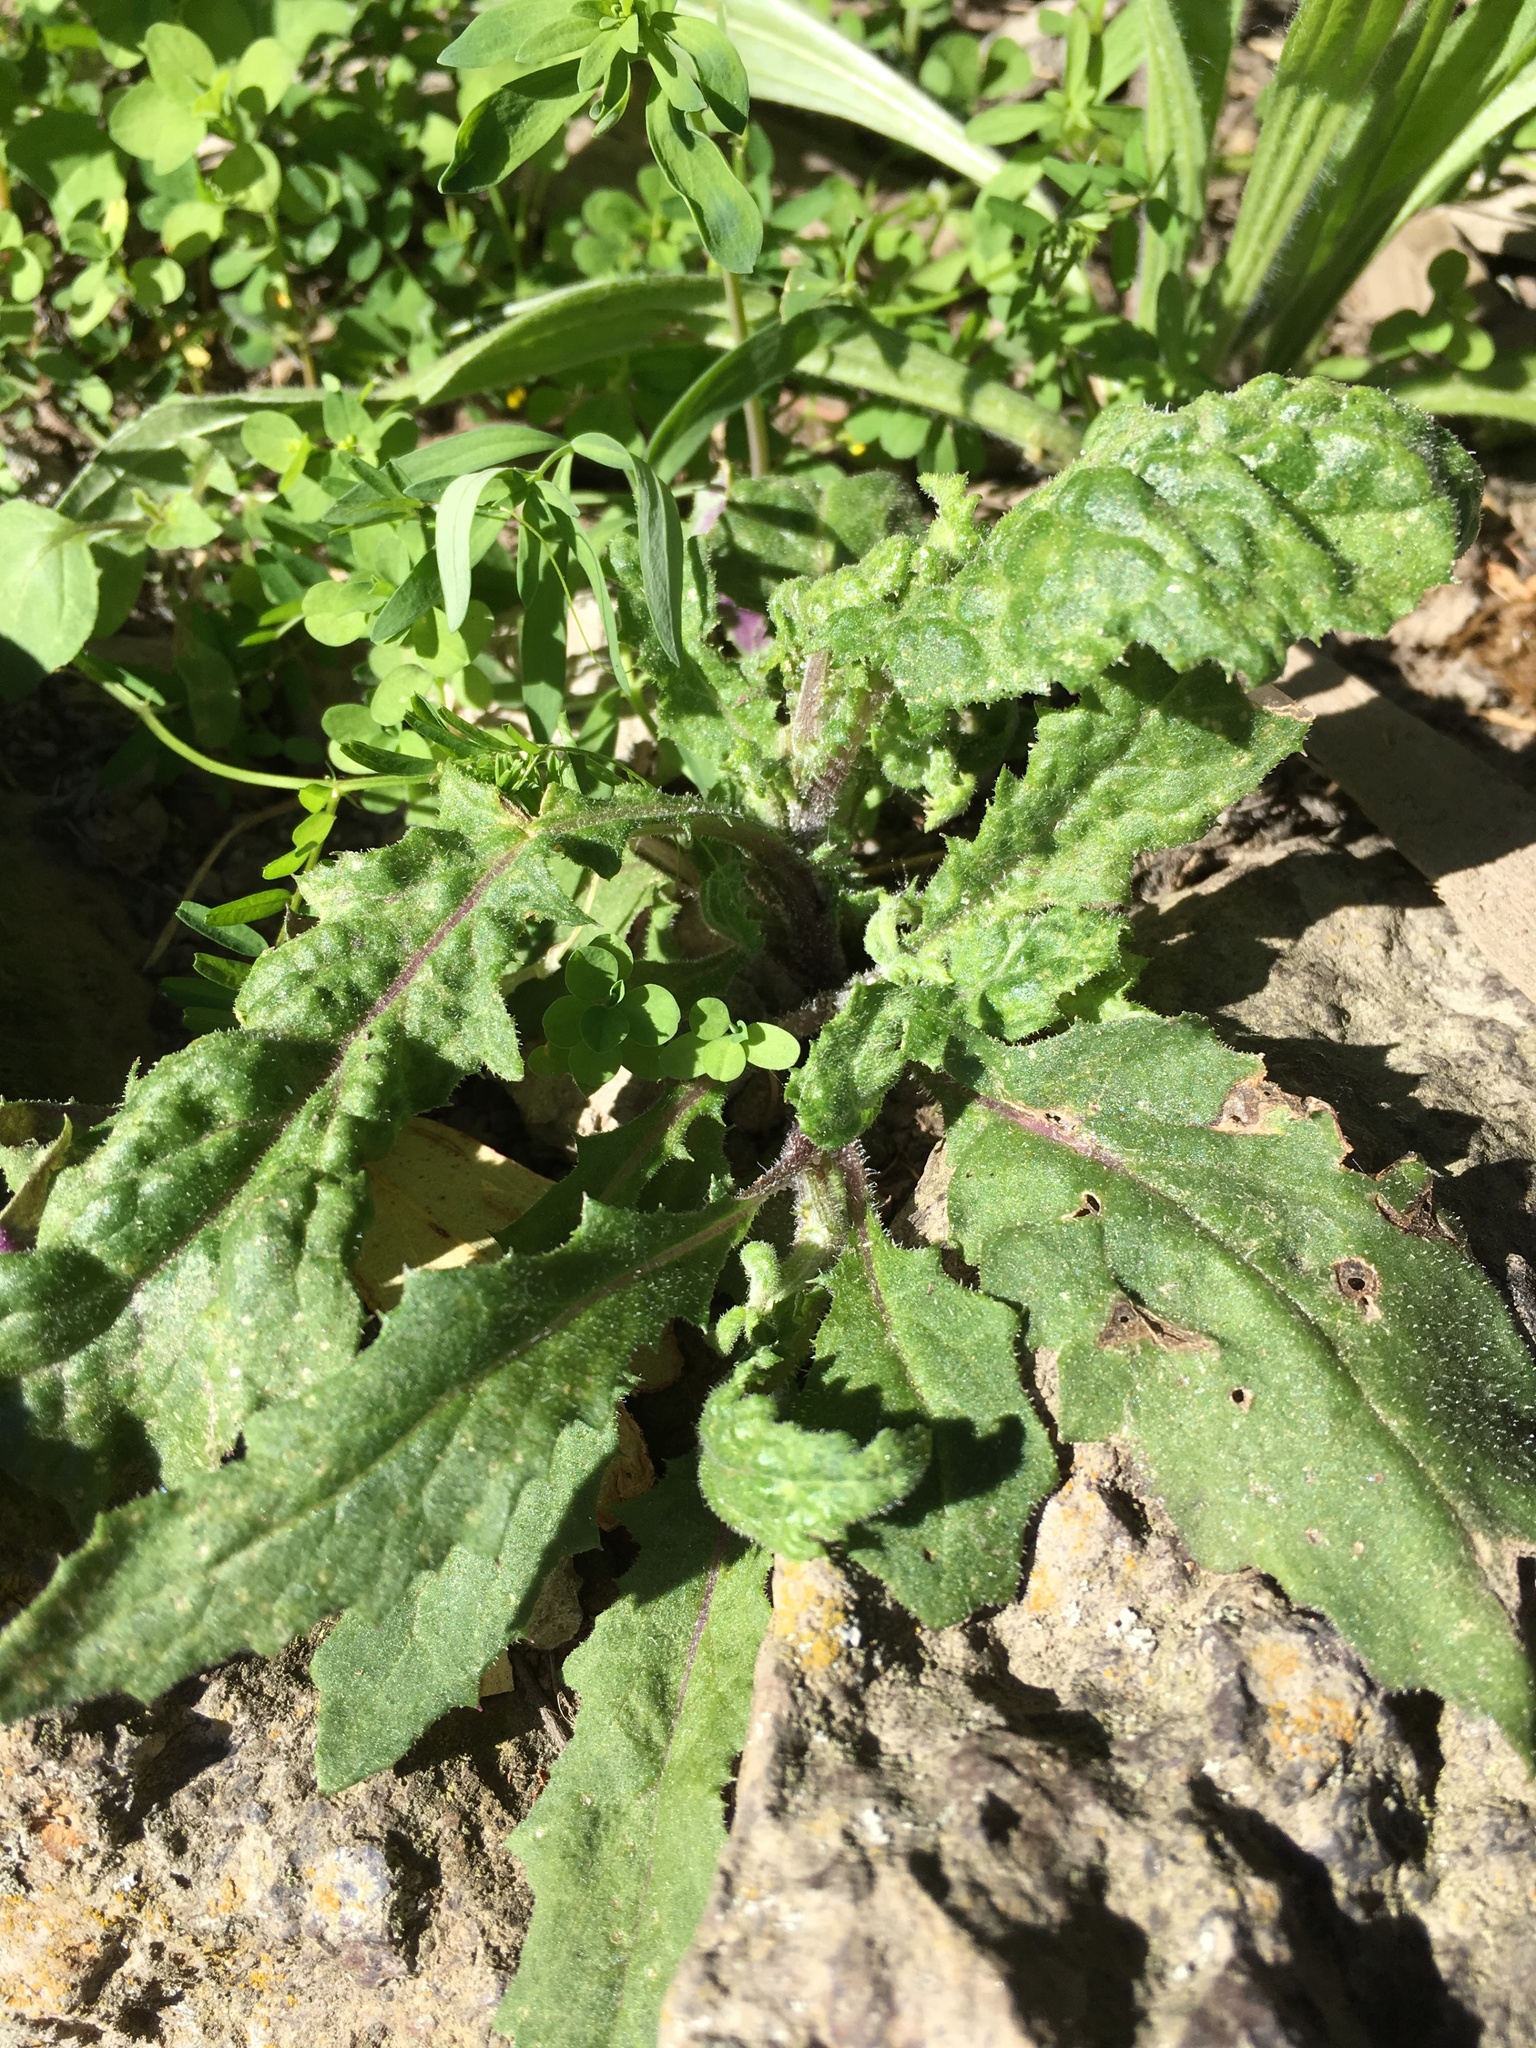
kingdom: Plantae
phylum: Tracheophyta
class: Magnoliopsida
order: Asterales
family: Asteraceae
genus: Senecio
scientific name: Senecio minimus
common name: Toothed fireweed
